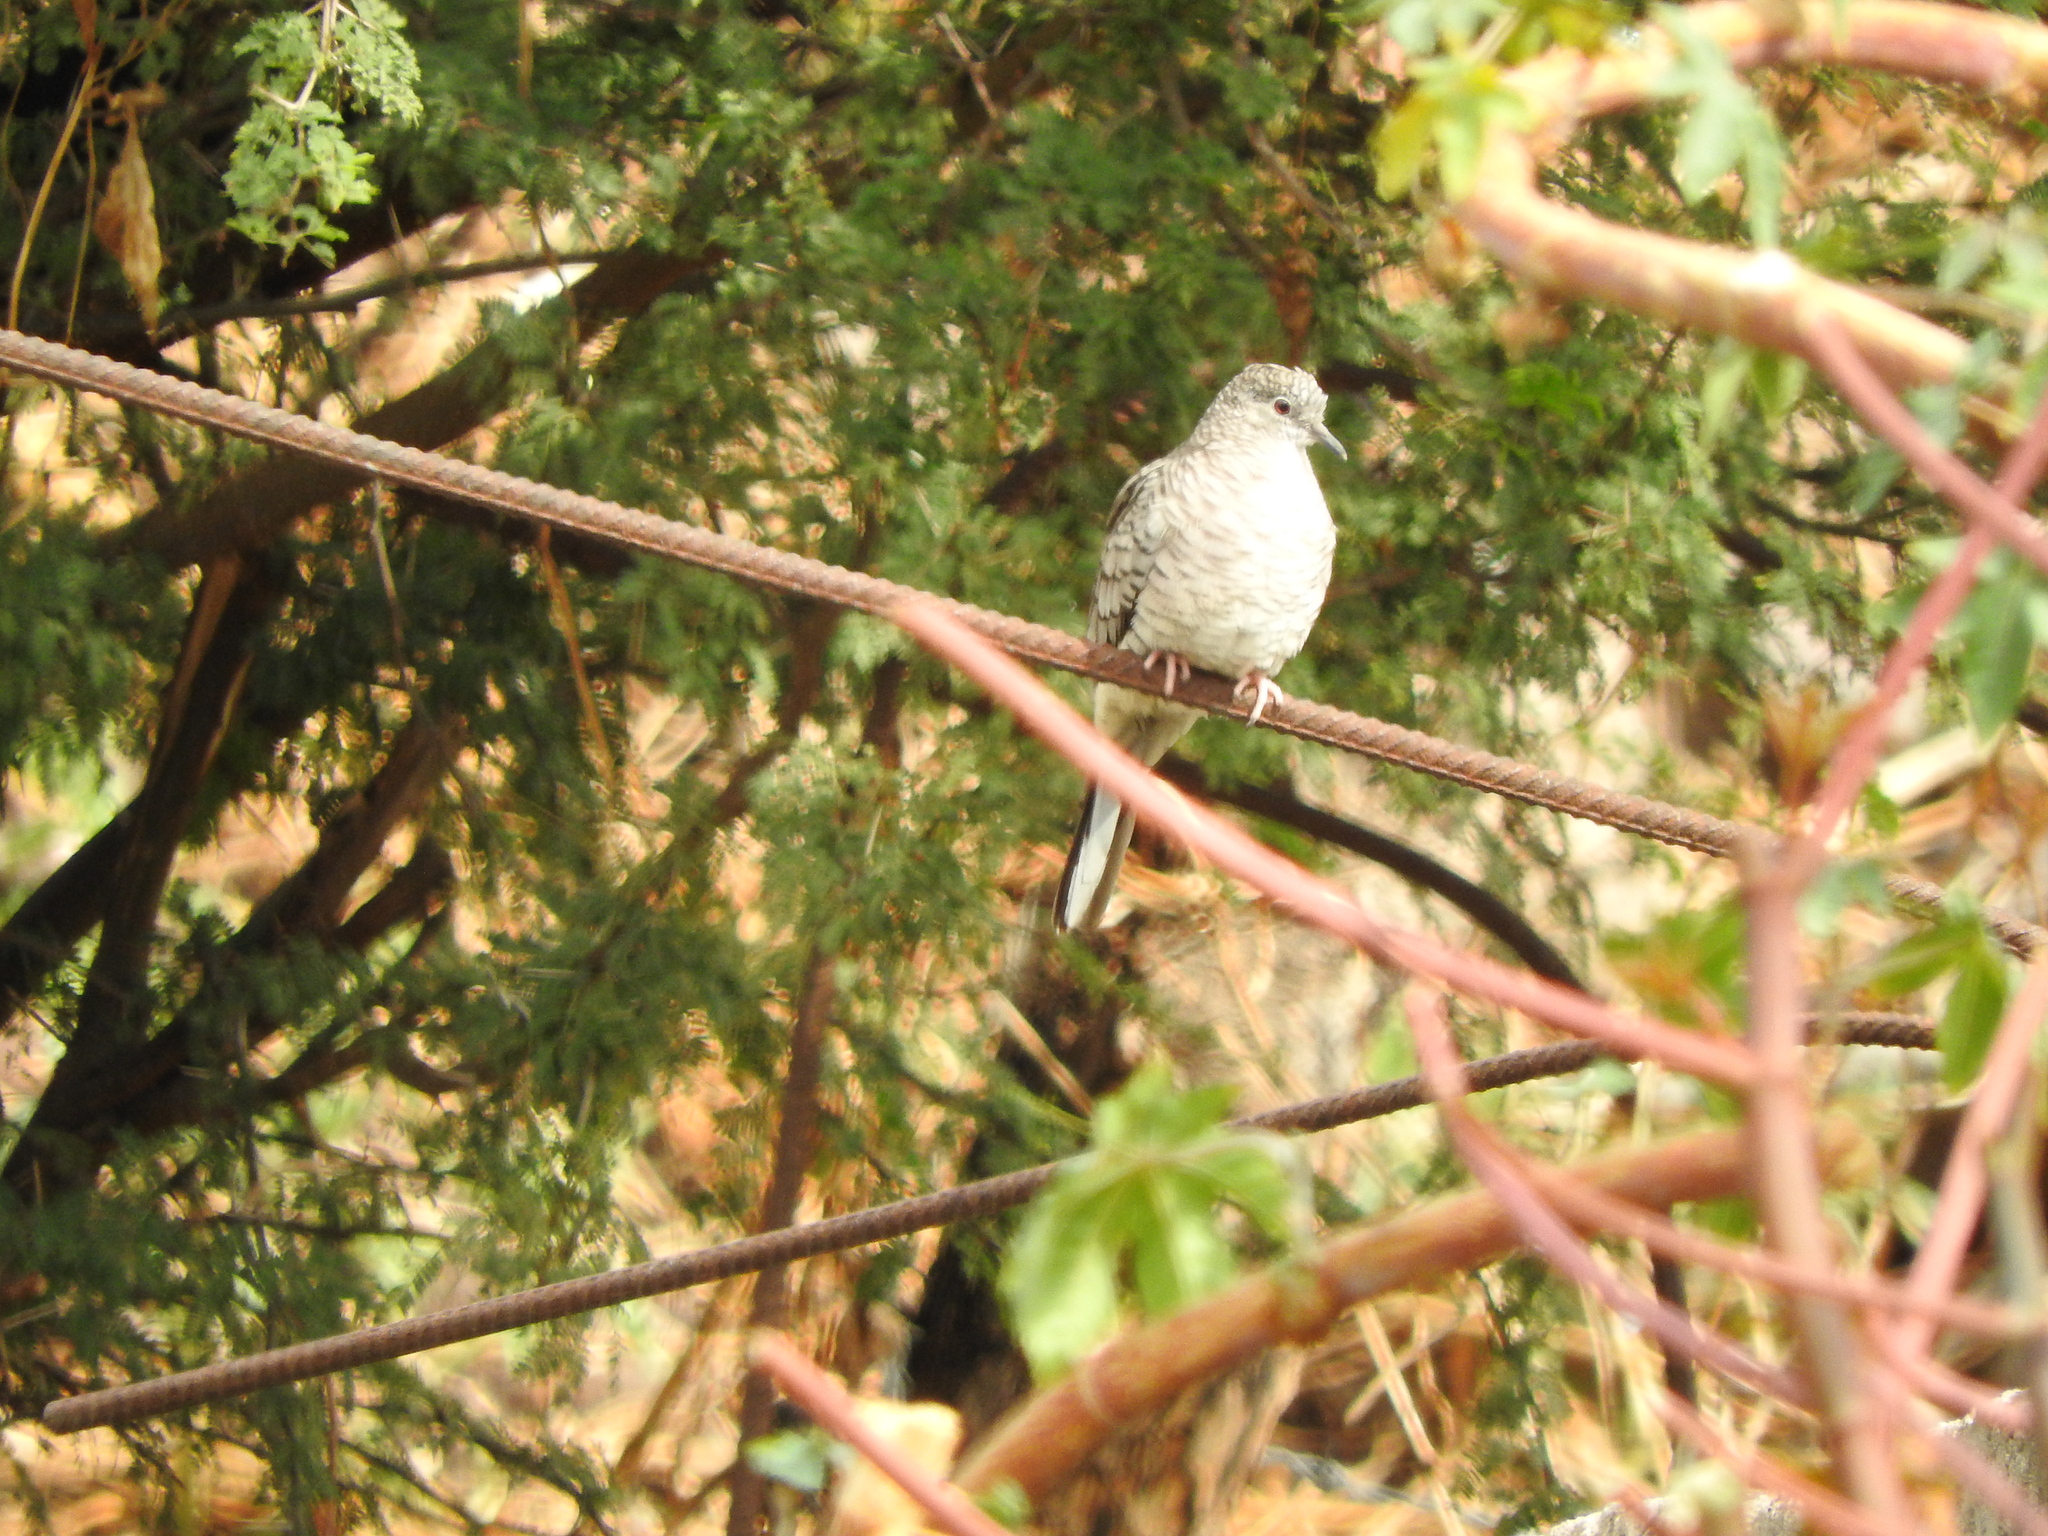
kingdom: Animalia
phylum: Chordata
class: Aves
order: Columbiformes
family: Columbidae
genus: Columbina
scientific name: Columbina inca
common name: Inca dove
